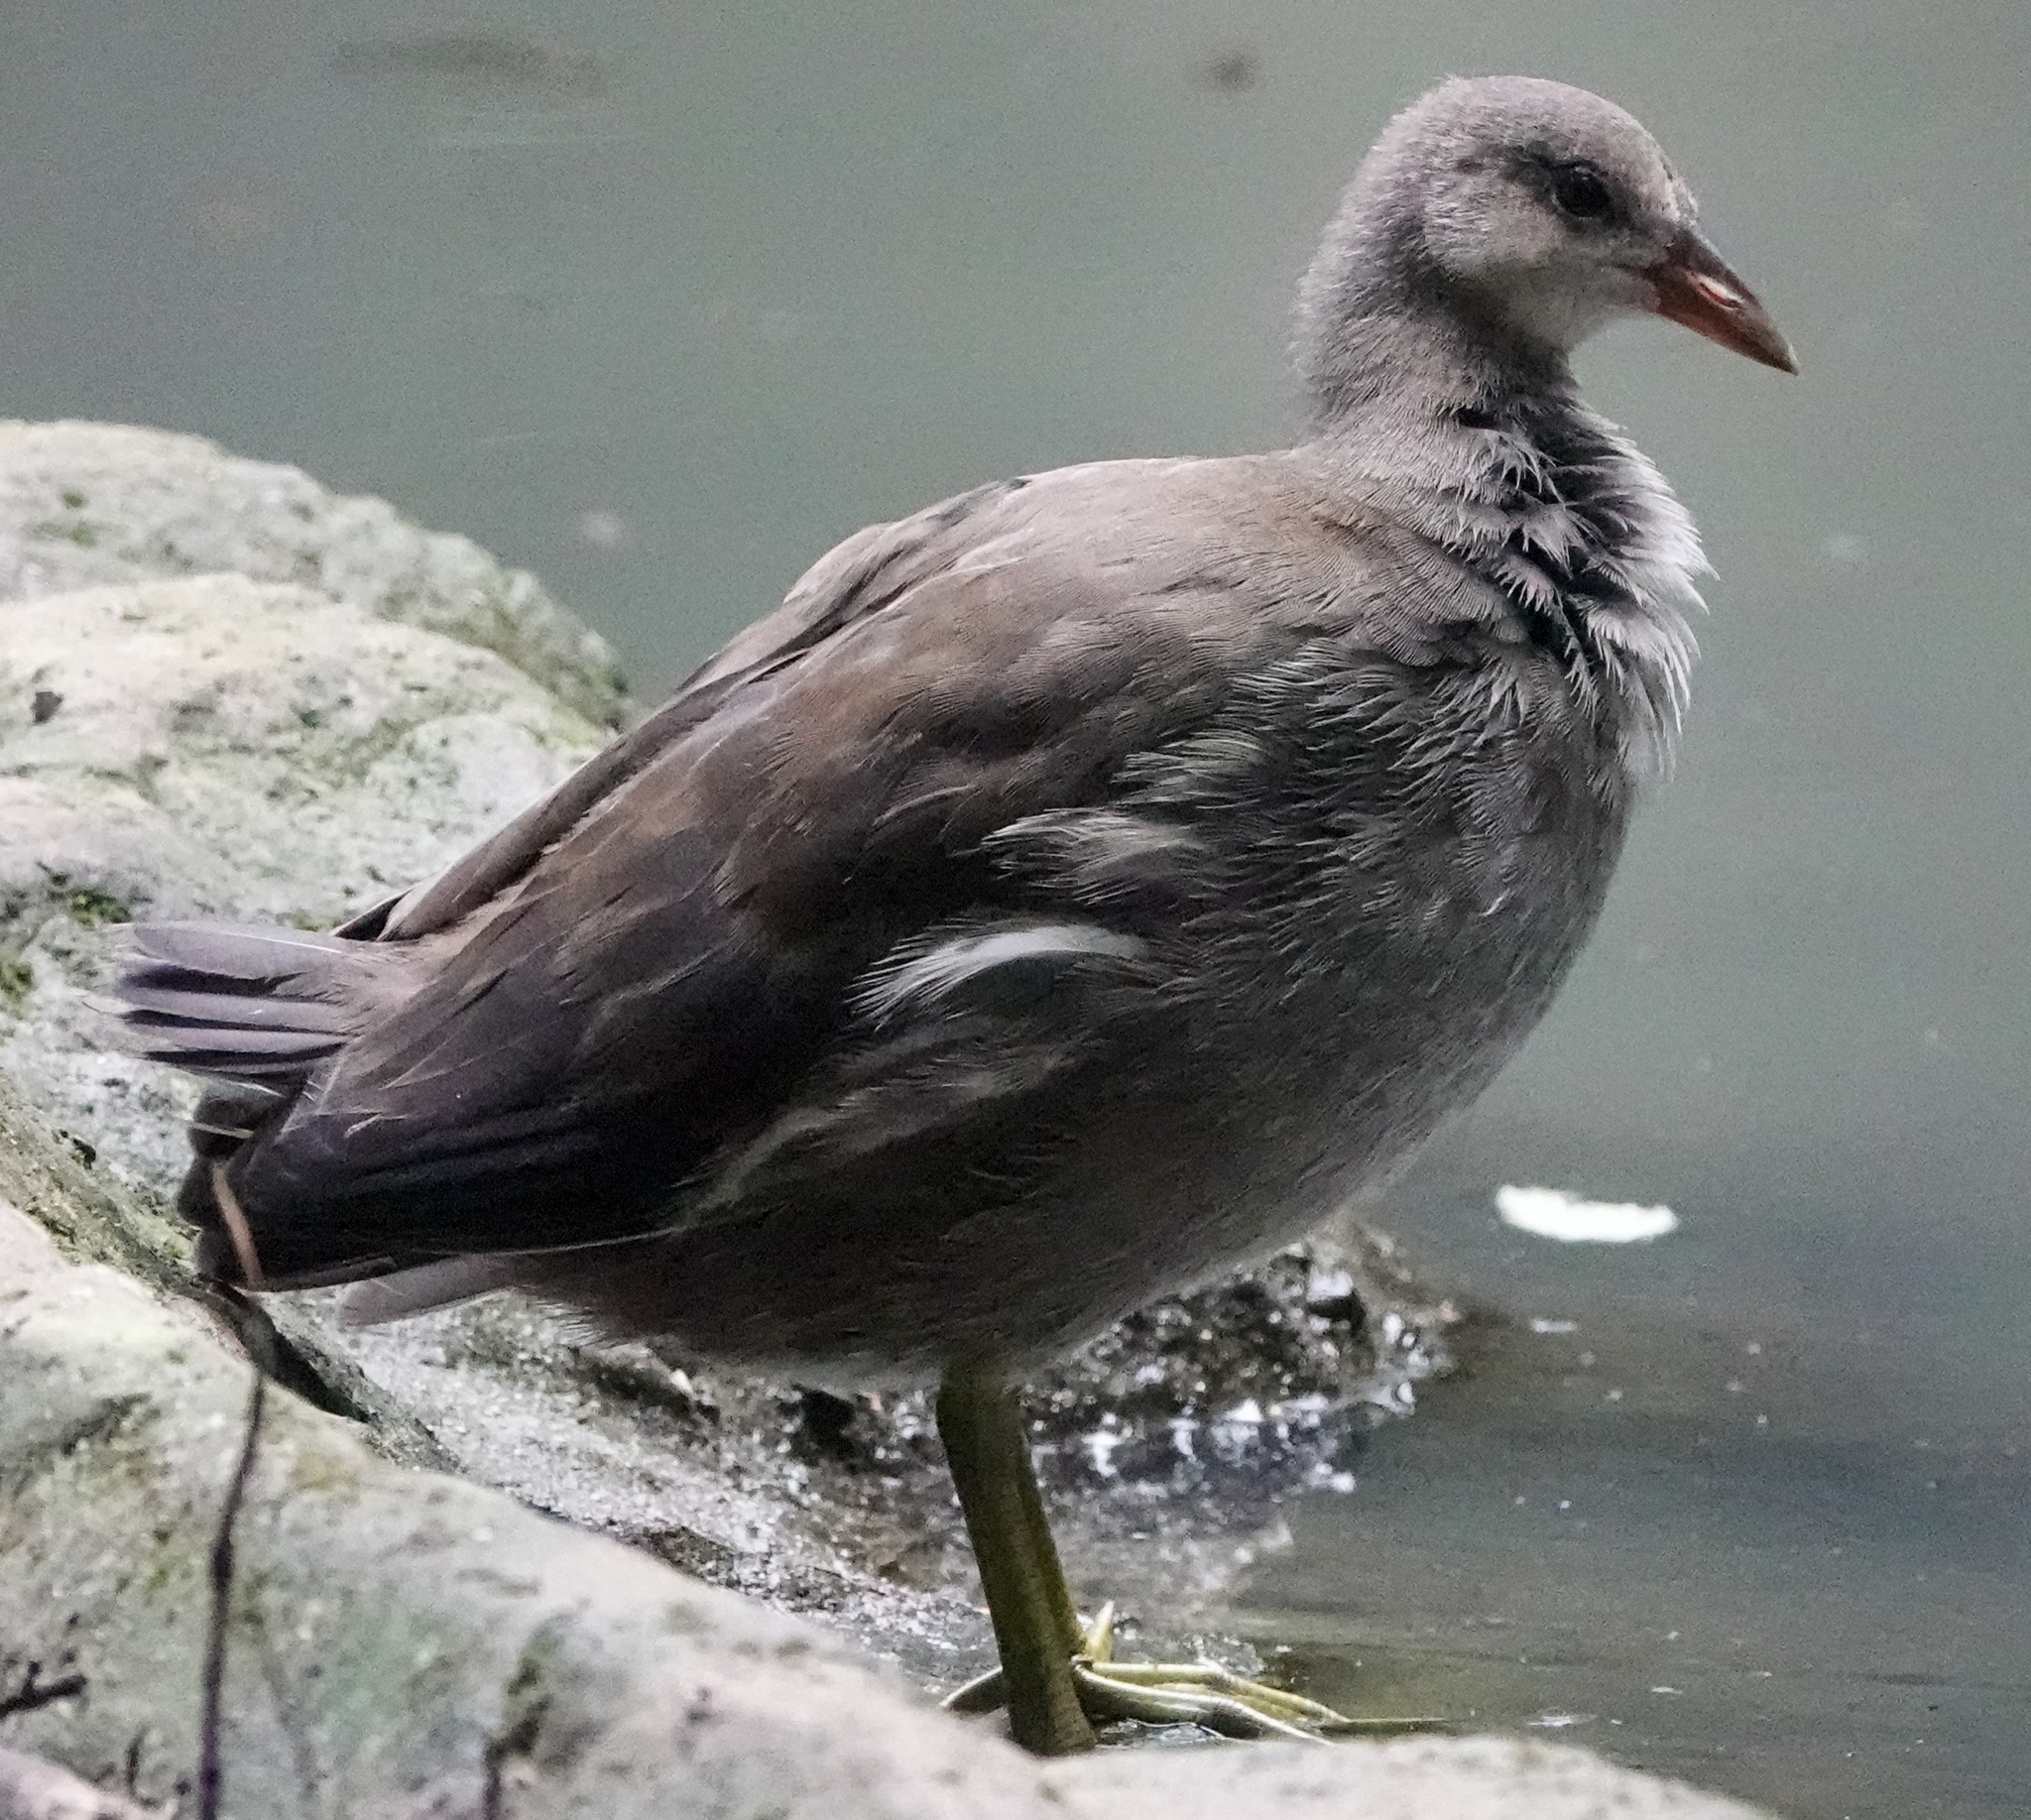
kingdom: Animalia
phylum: Chordata
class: Aves
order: Gruiformes
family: Rallidae
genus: Gallinula
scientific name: Gallinula chloropus
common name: Common moorhen
